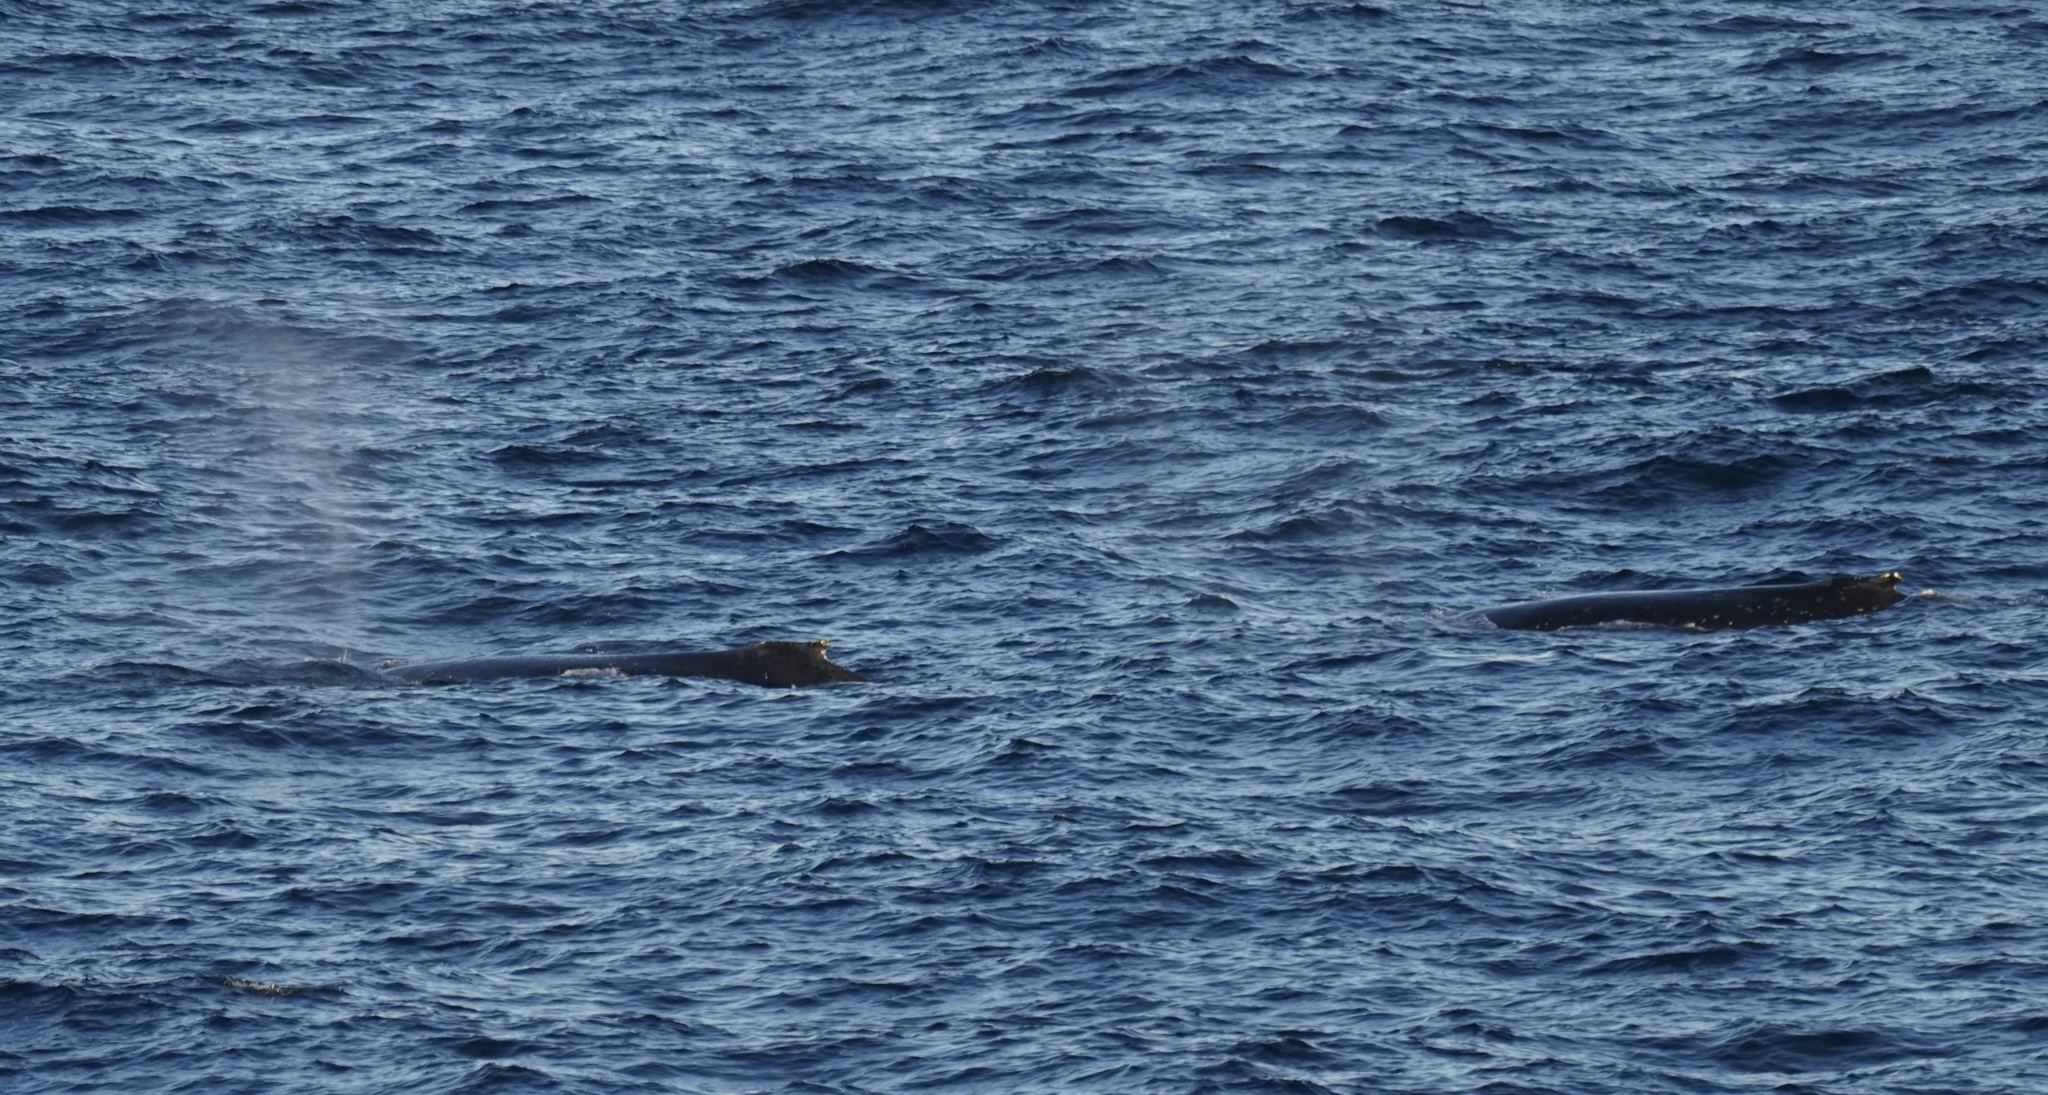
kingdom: Animalia
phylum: Chordata
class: Mammalia
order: Cetacea
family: Balaenopteridae
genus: Megaptera
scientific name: Megaptera novaeangliae
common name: Humpback whale
